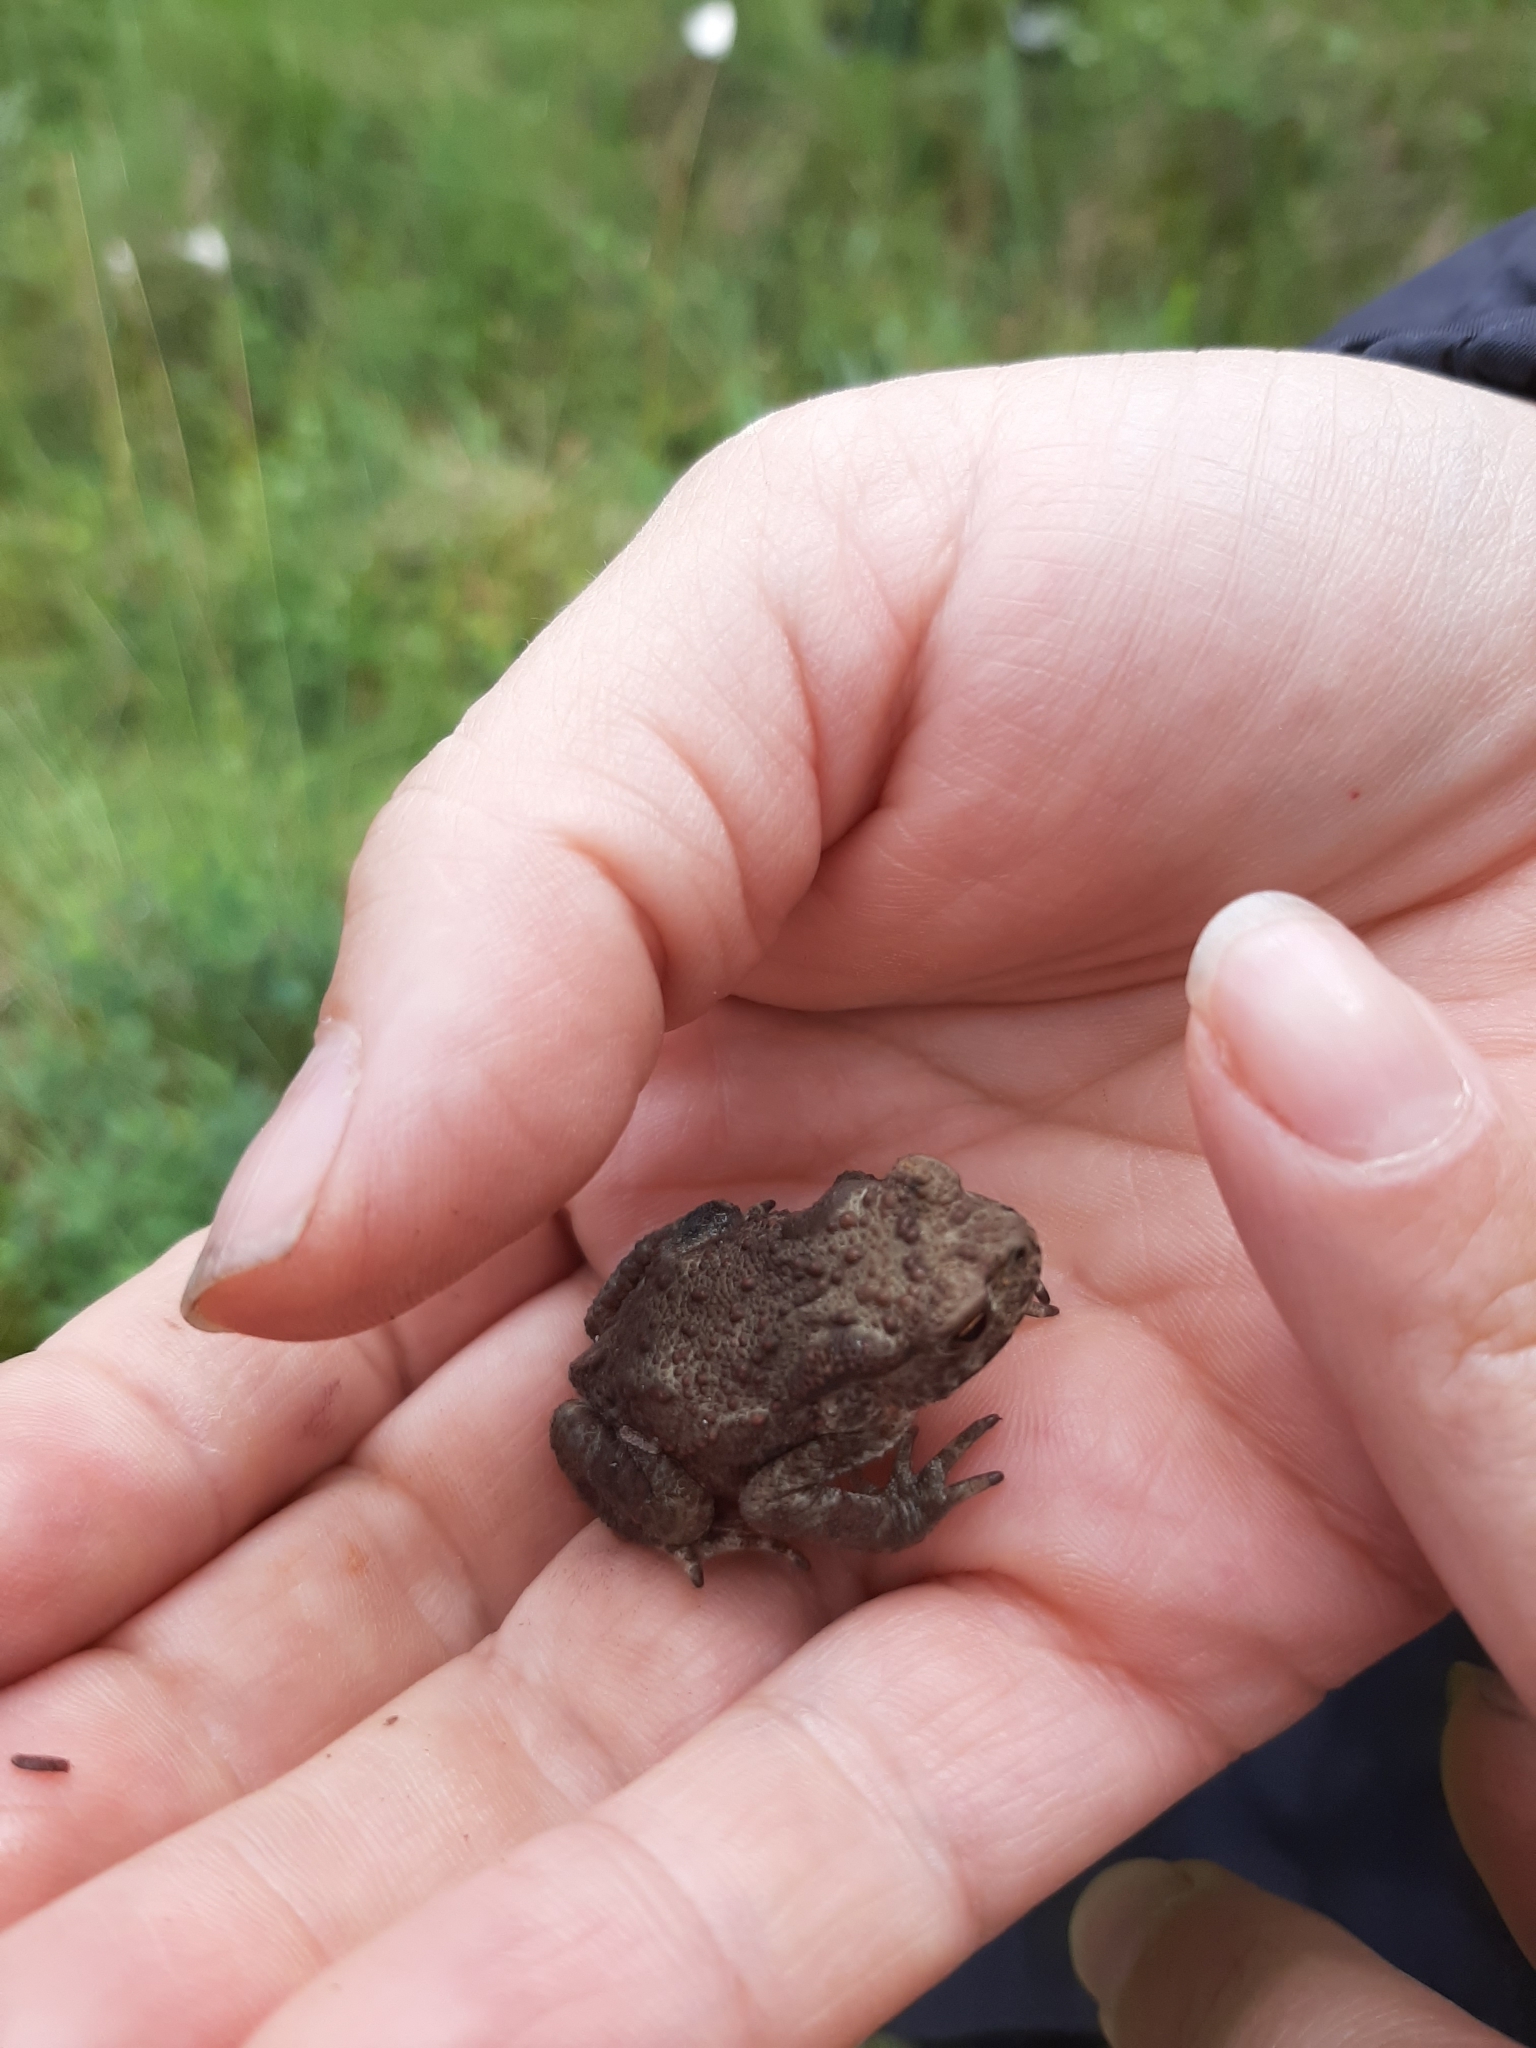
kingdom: Animalia
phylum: Chordata
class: Amphibia
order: Anura
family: Bufonidae
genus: Bufo
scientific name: Bufo bufo
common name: Common toad
